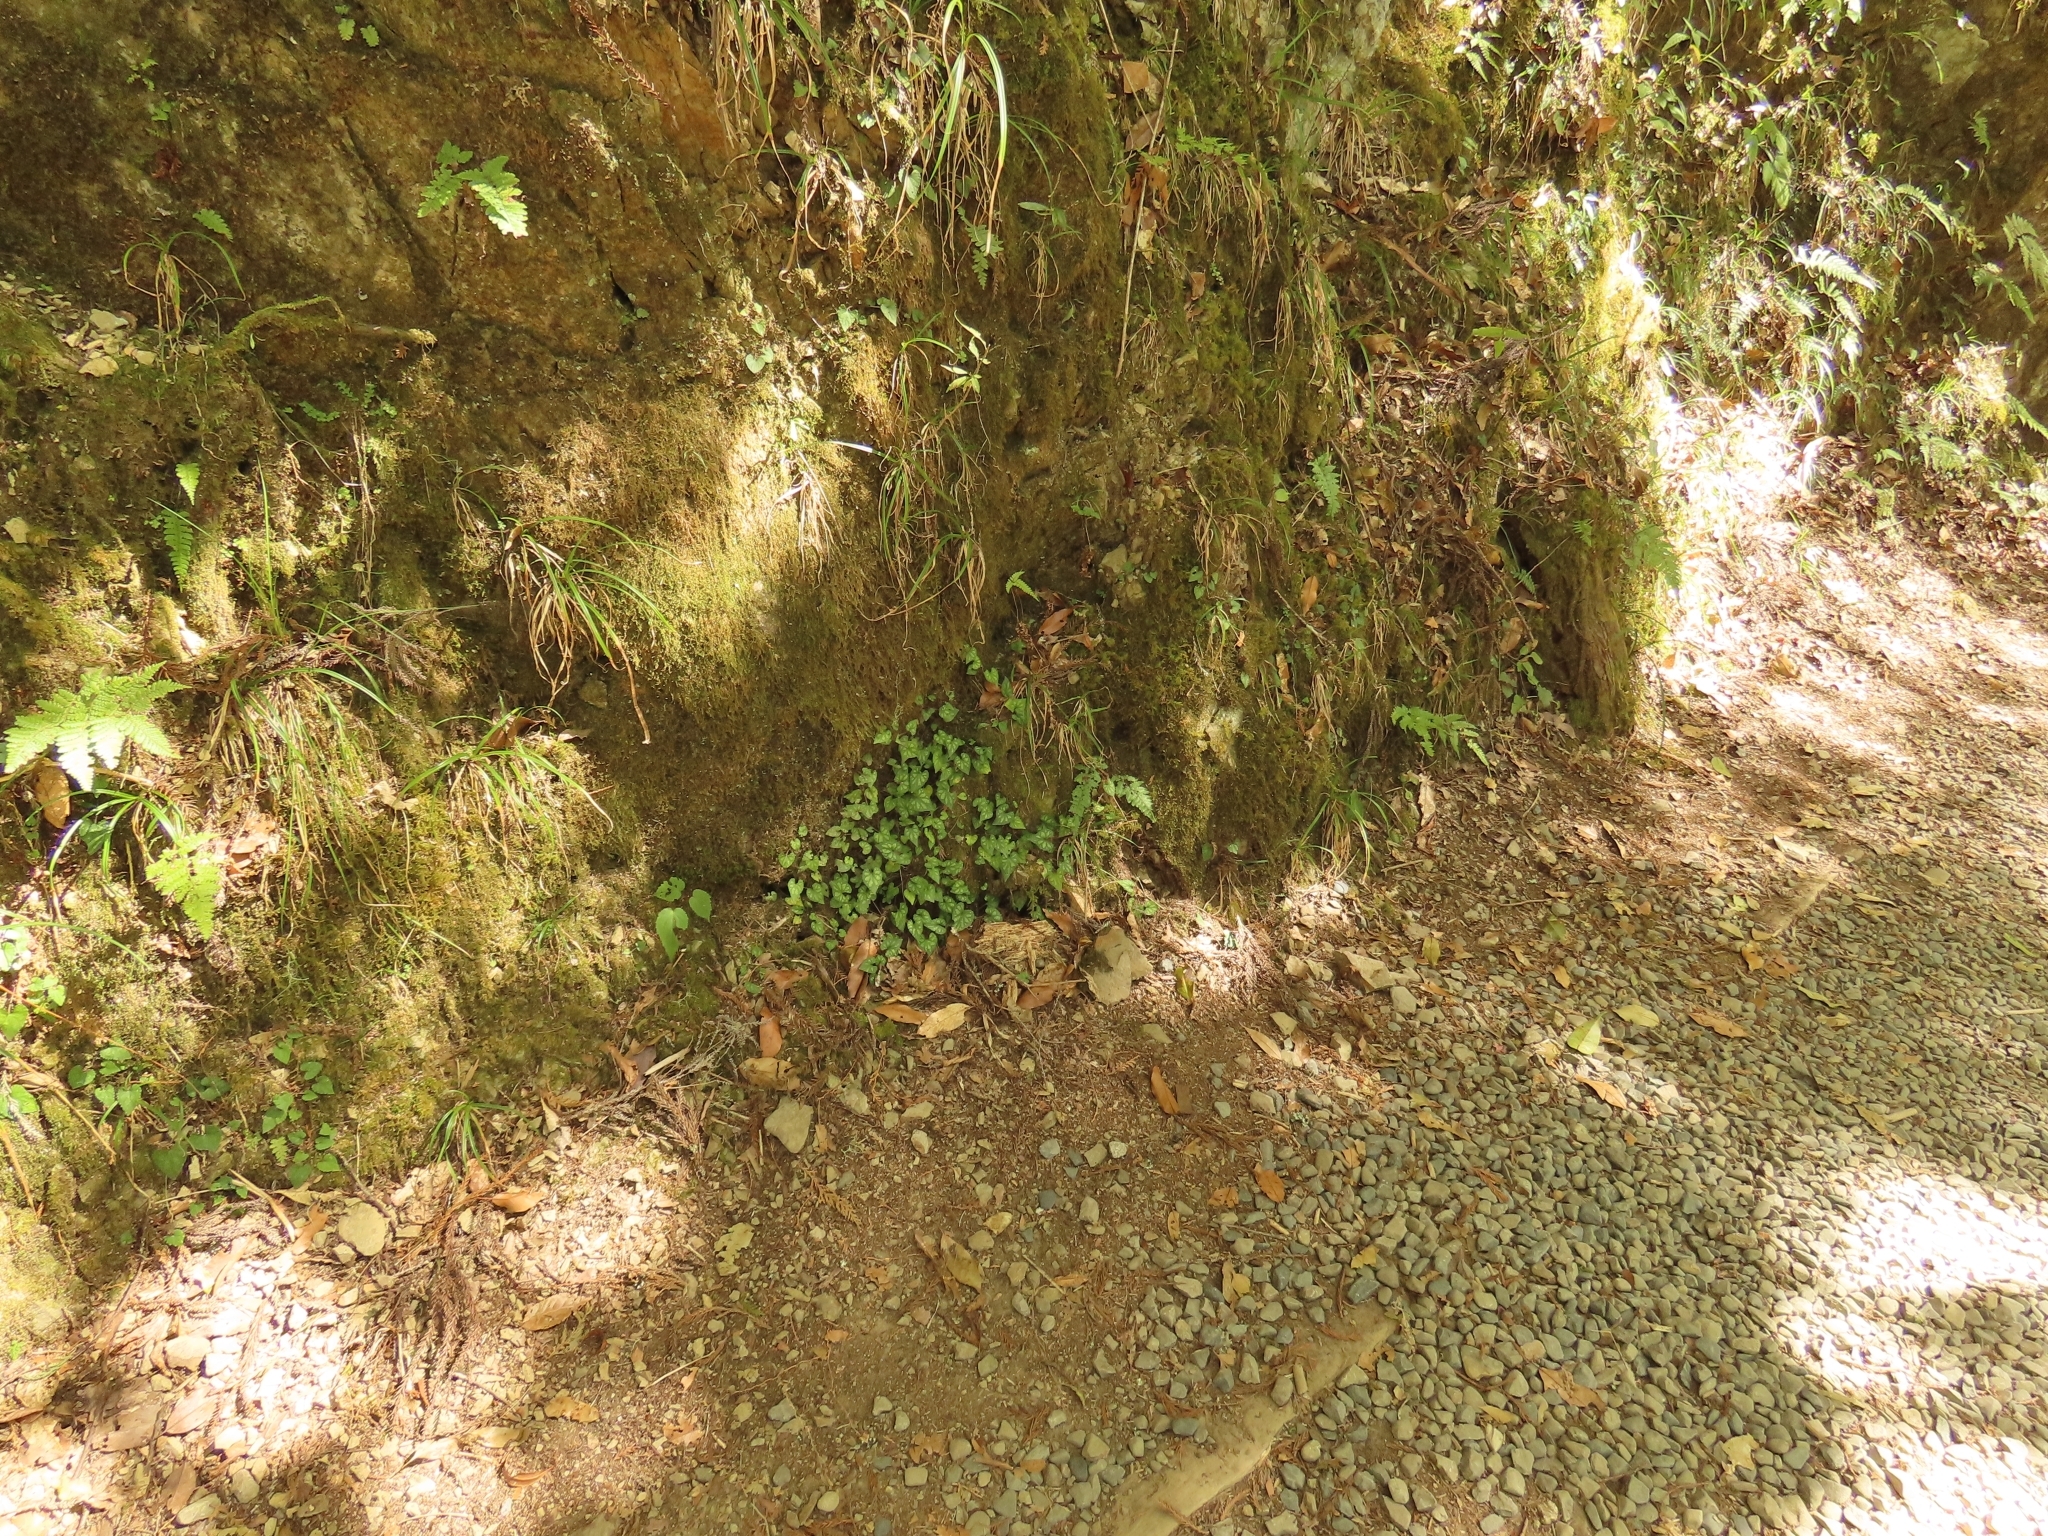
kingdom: Plantae
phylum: Tracheophyta
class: Magnoliopsida
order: Malpighiales
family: Violaceae
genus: Viola
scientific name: Viola formosana
